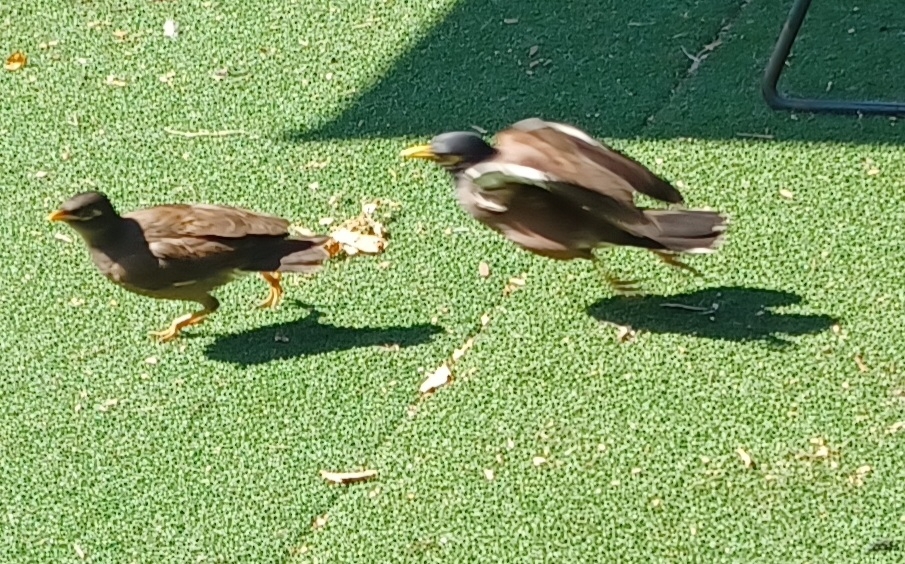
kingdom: Animalia
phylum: Chordata
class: Aves
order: Passeriformes
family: Sturnidae
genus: Acridotheres
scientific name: Acridotheres tristis
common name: Common myna
